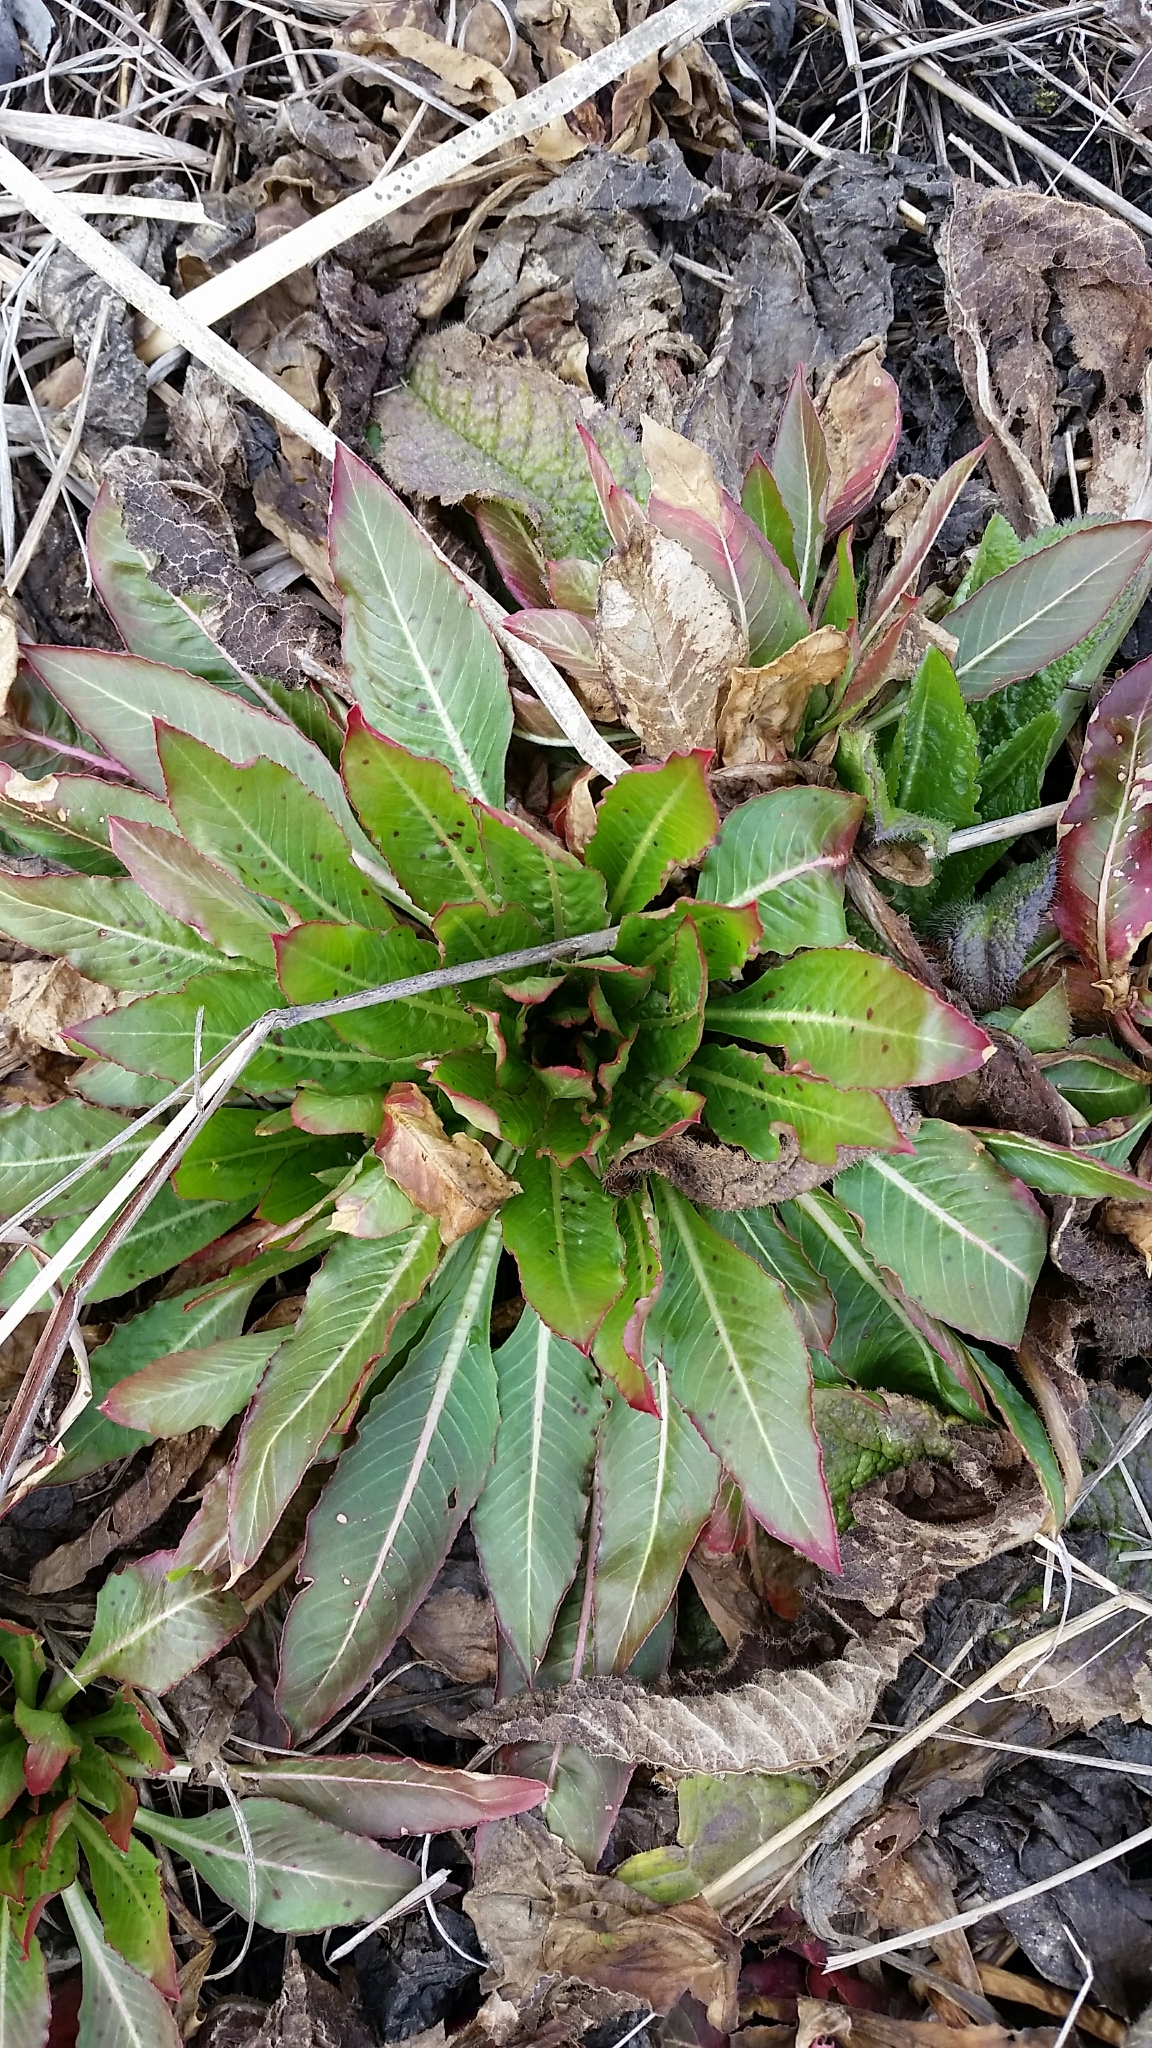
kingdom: Plantae
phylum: Tracheophyta
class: Magnoliopsida
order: Myrtales
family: Onagraceae
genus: Oenothera
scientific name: Oenothera biennis
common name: Common evening-primrose
